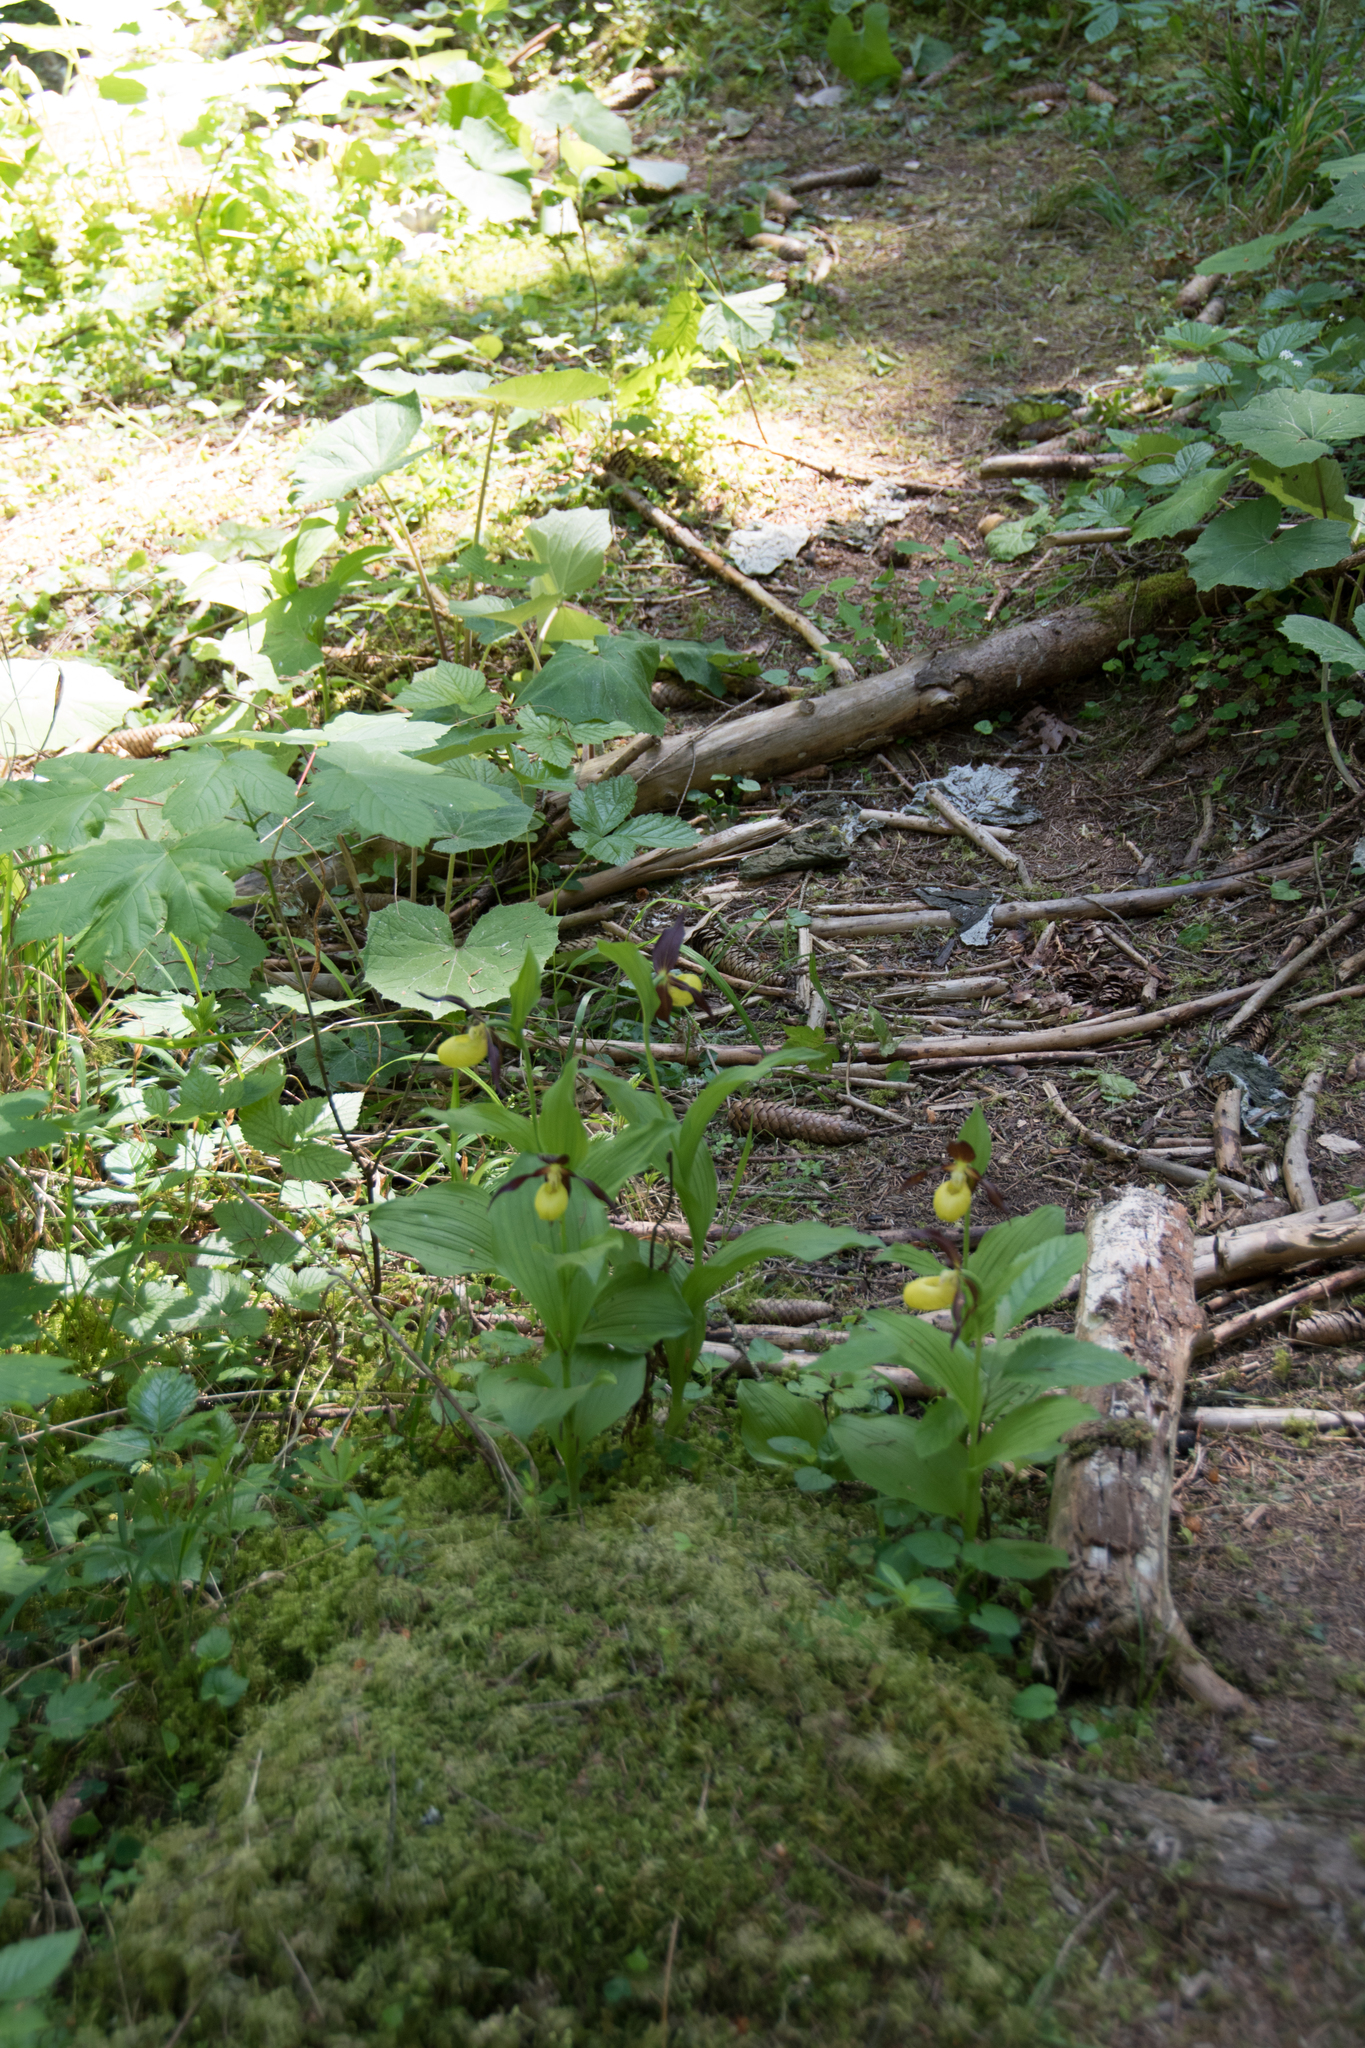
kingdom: Plantae
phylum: Tracheophyta
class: Liliopsida
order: Asparagales
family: Orchidaceae
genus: Cypripedium
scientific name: Cypripedium calceolus
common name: Lady's-slipper
